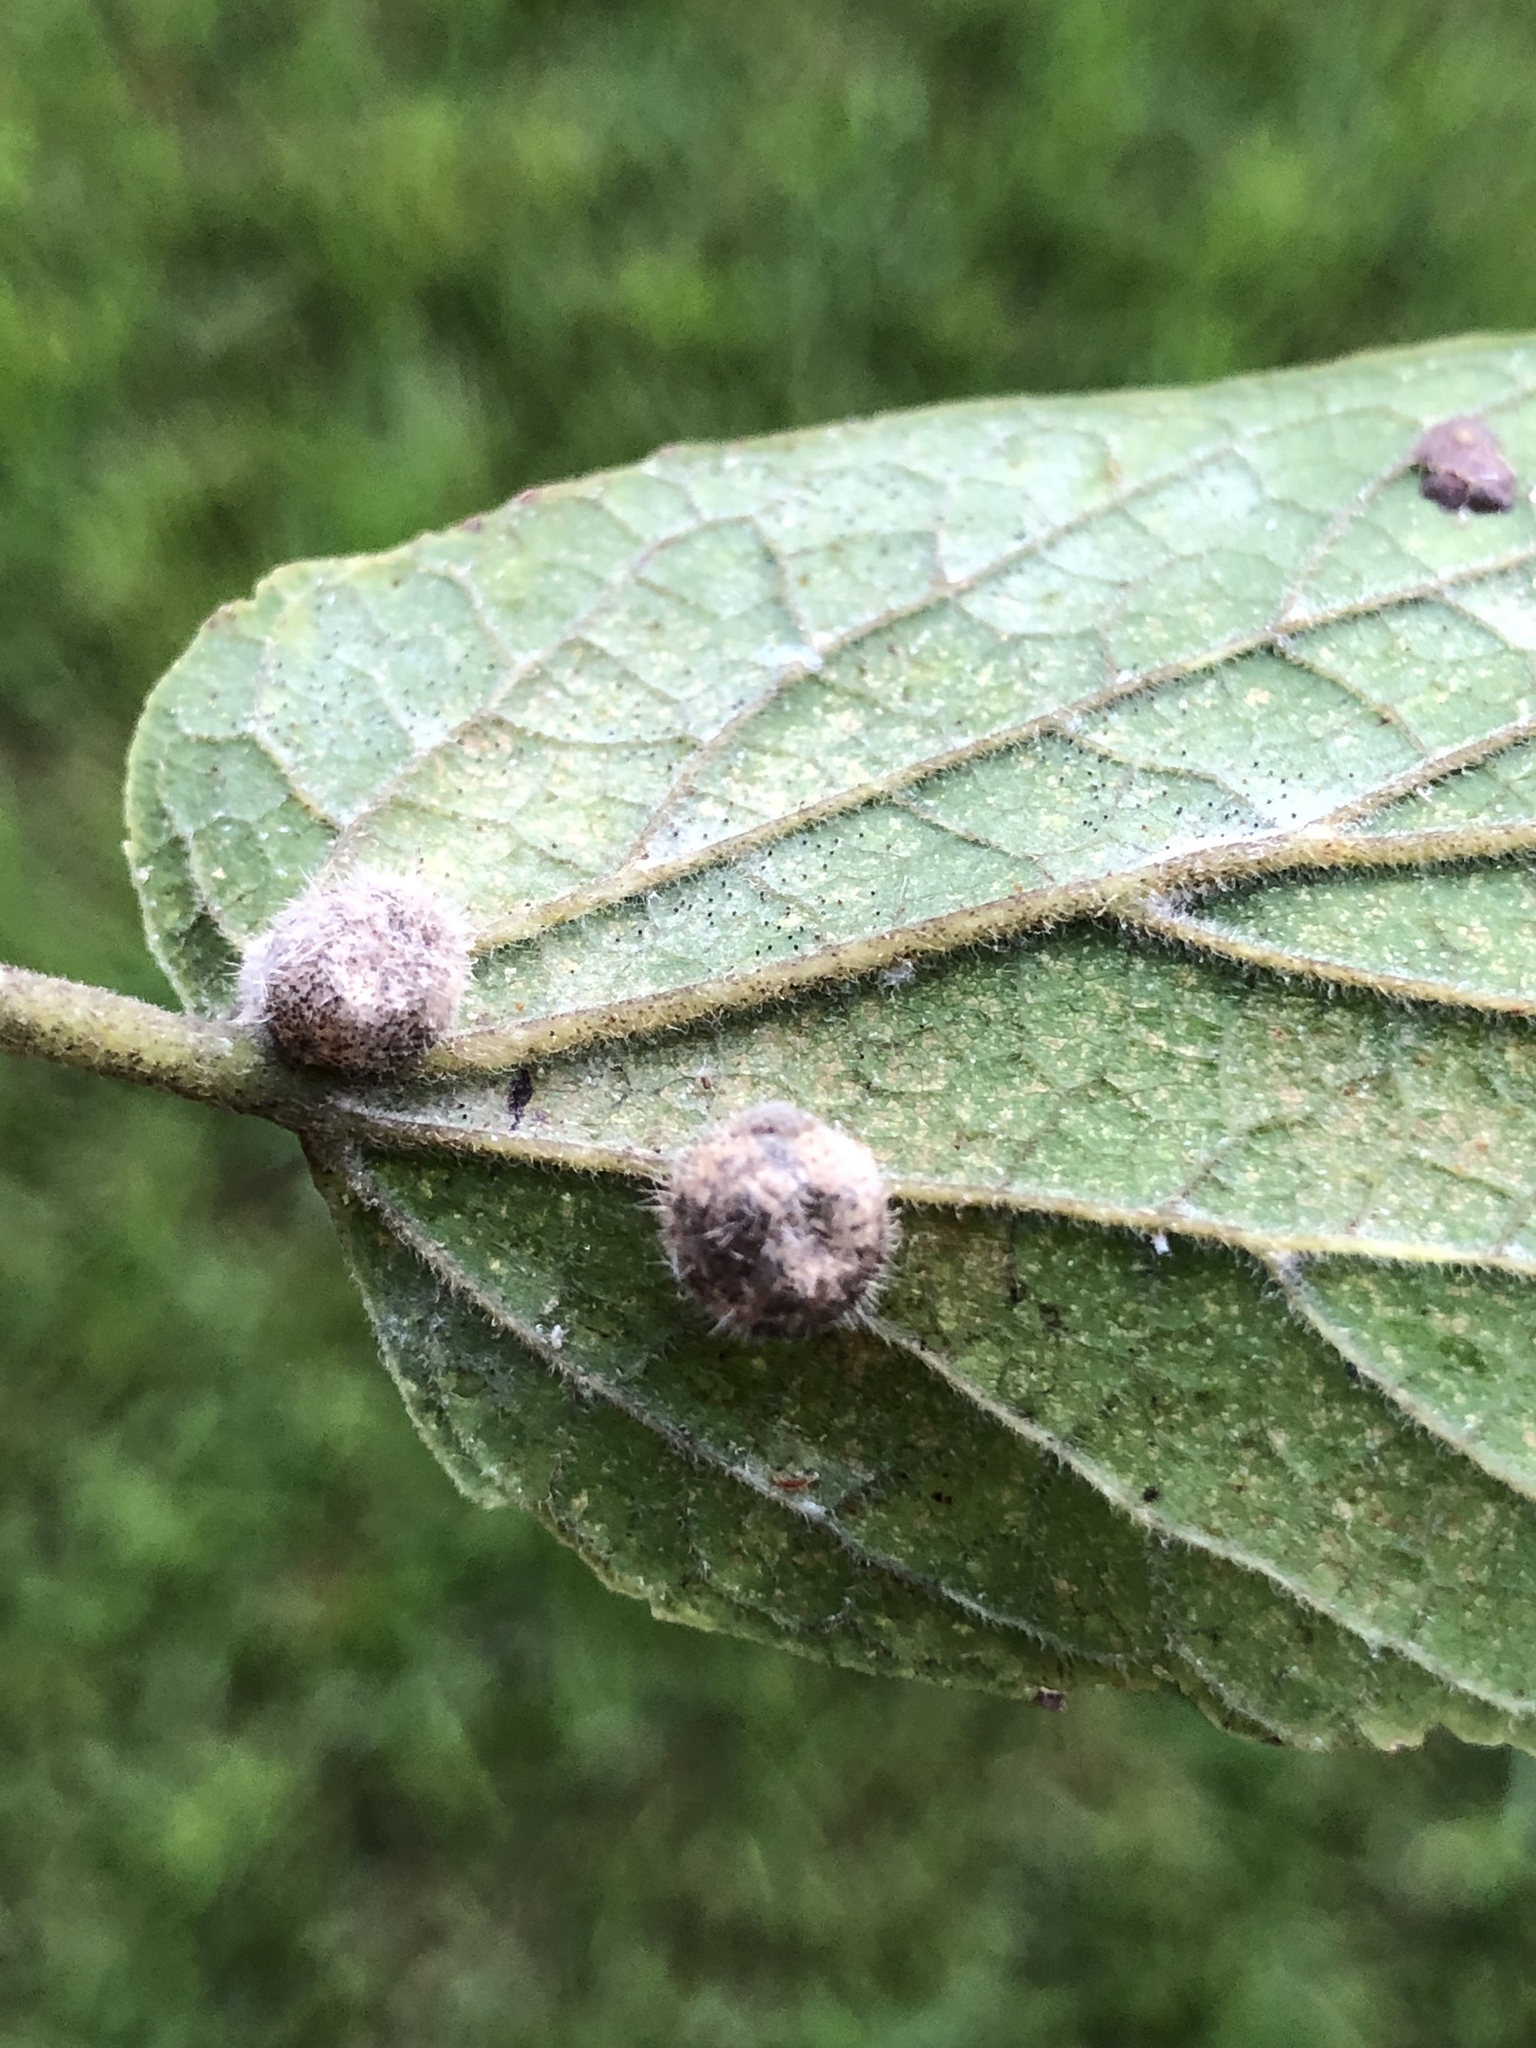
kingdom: Animalia
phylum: Arthropoda
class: Insecta
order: Diptera
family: Cecidomyiidae
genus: Celticecis
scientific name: Celticecis pubescens
